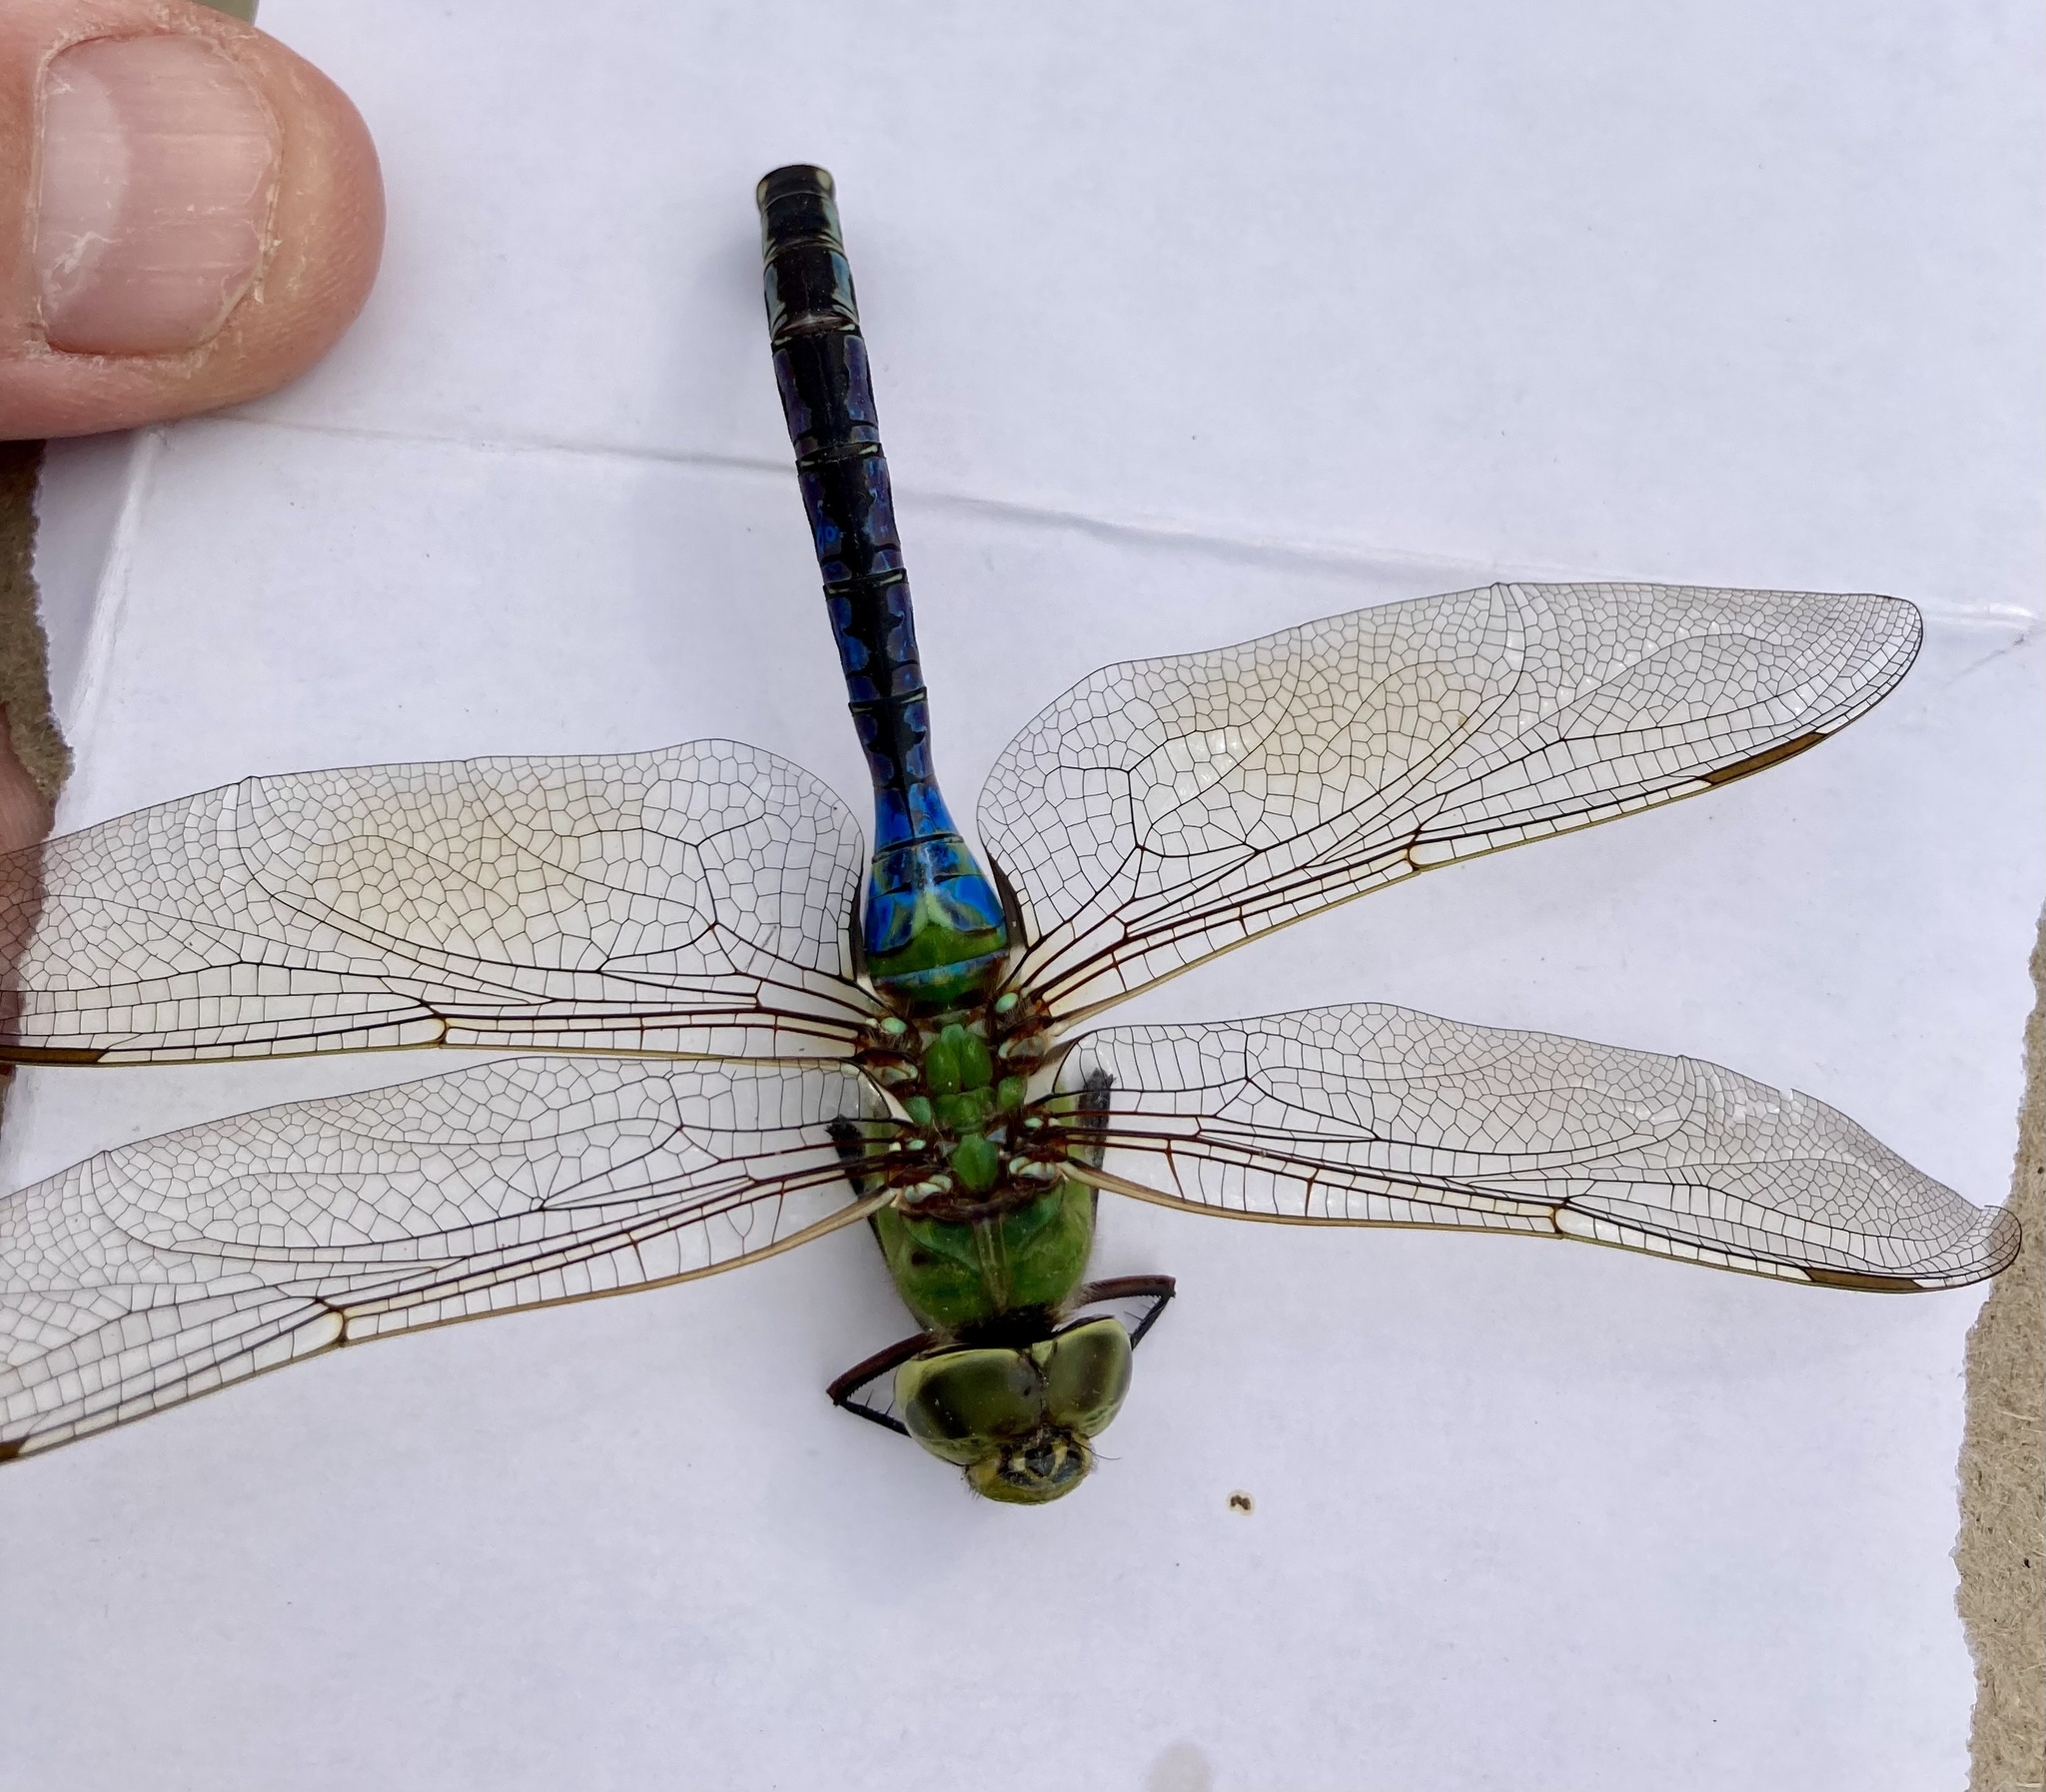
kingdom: Animalia
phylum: Arthropoda
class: Insecta
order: Odonata
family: Aeshnidae
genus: Anax
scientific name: Anax junius
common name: Common green darner
